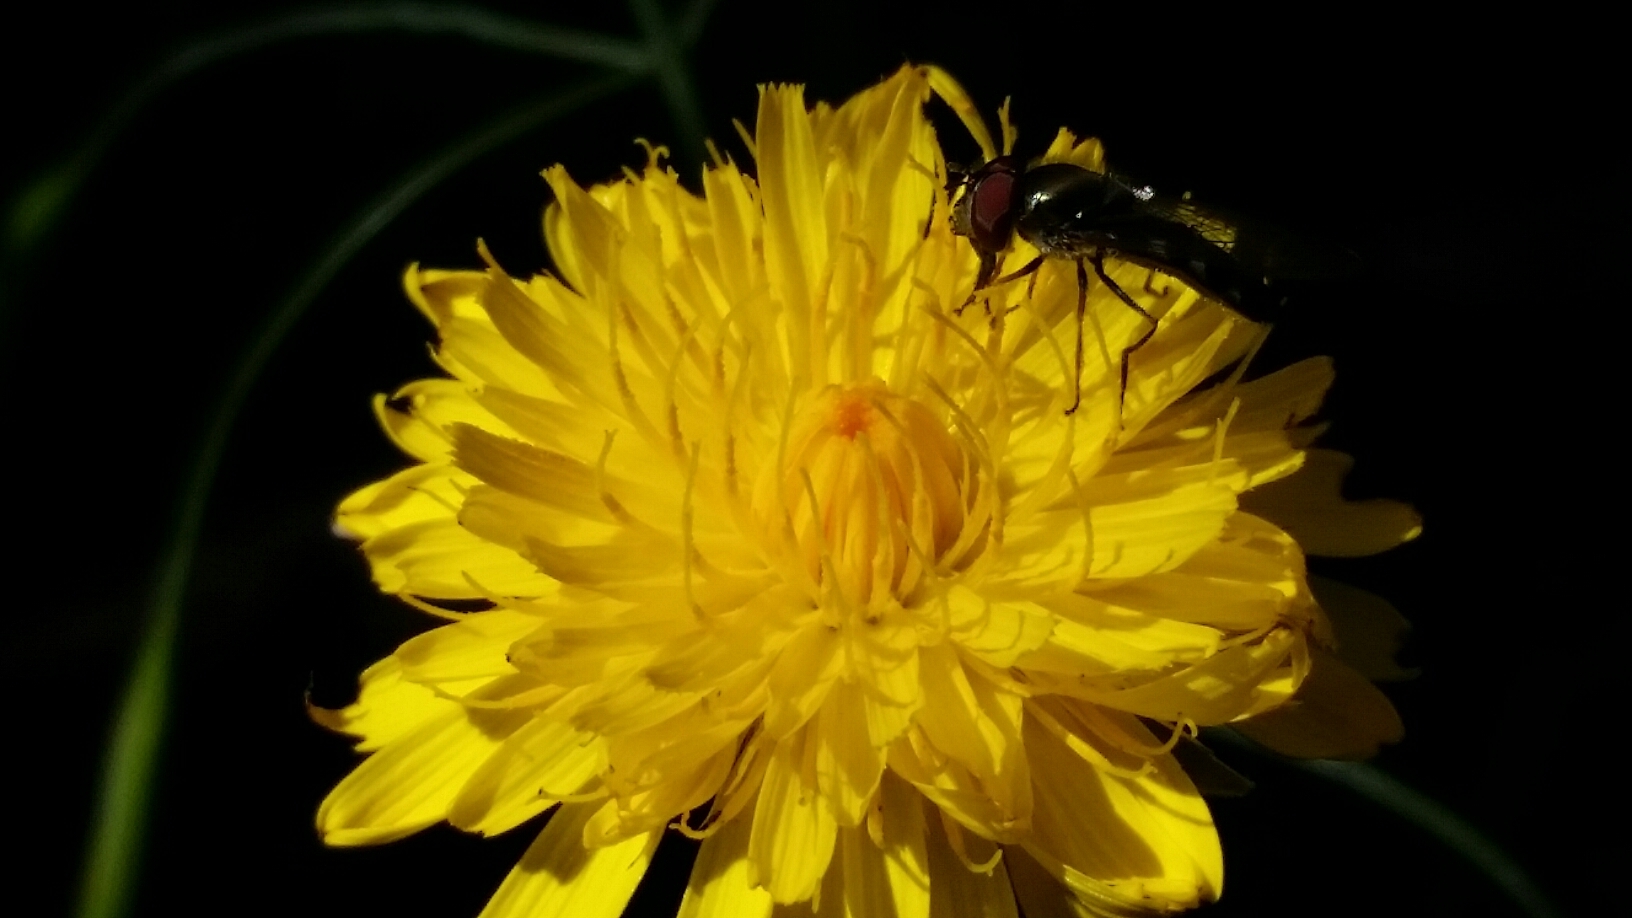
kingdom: Animalia
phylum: Arthropoda
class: Insecta
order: Diptera
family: Syrphidae
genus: Platycheirus
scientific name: Platycheirus trichopus
